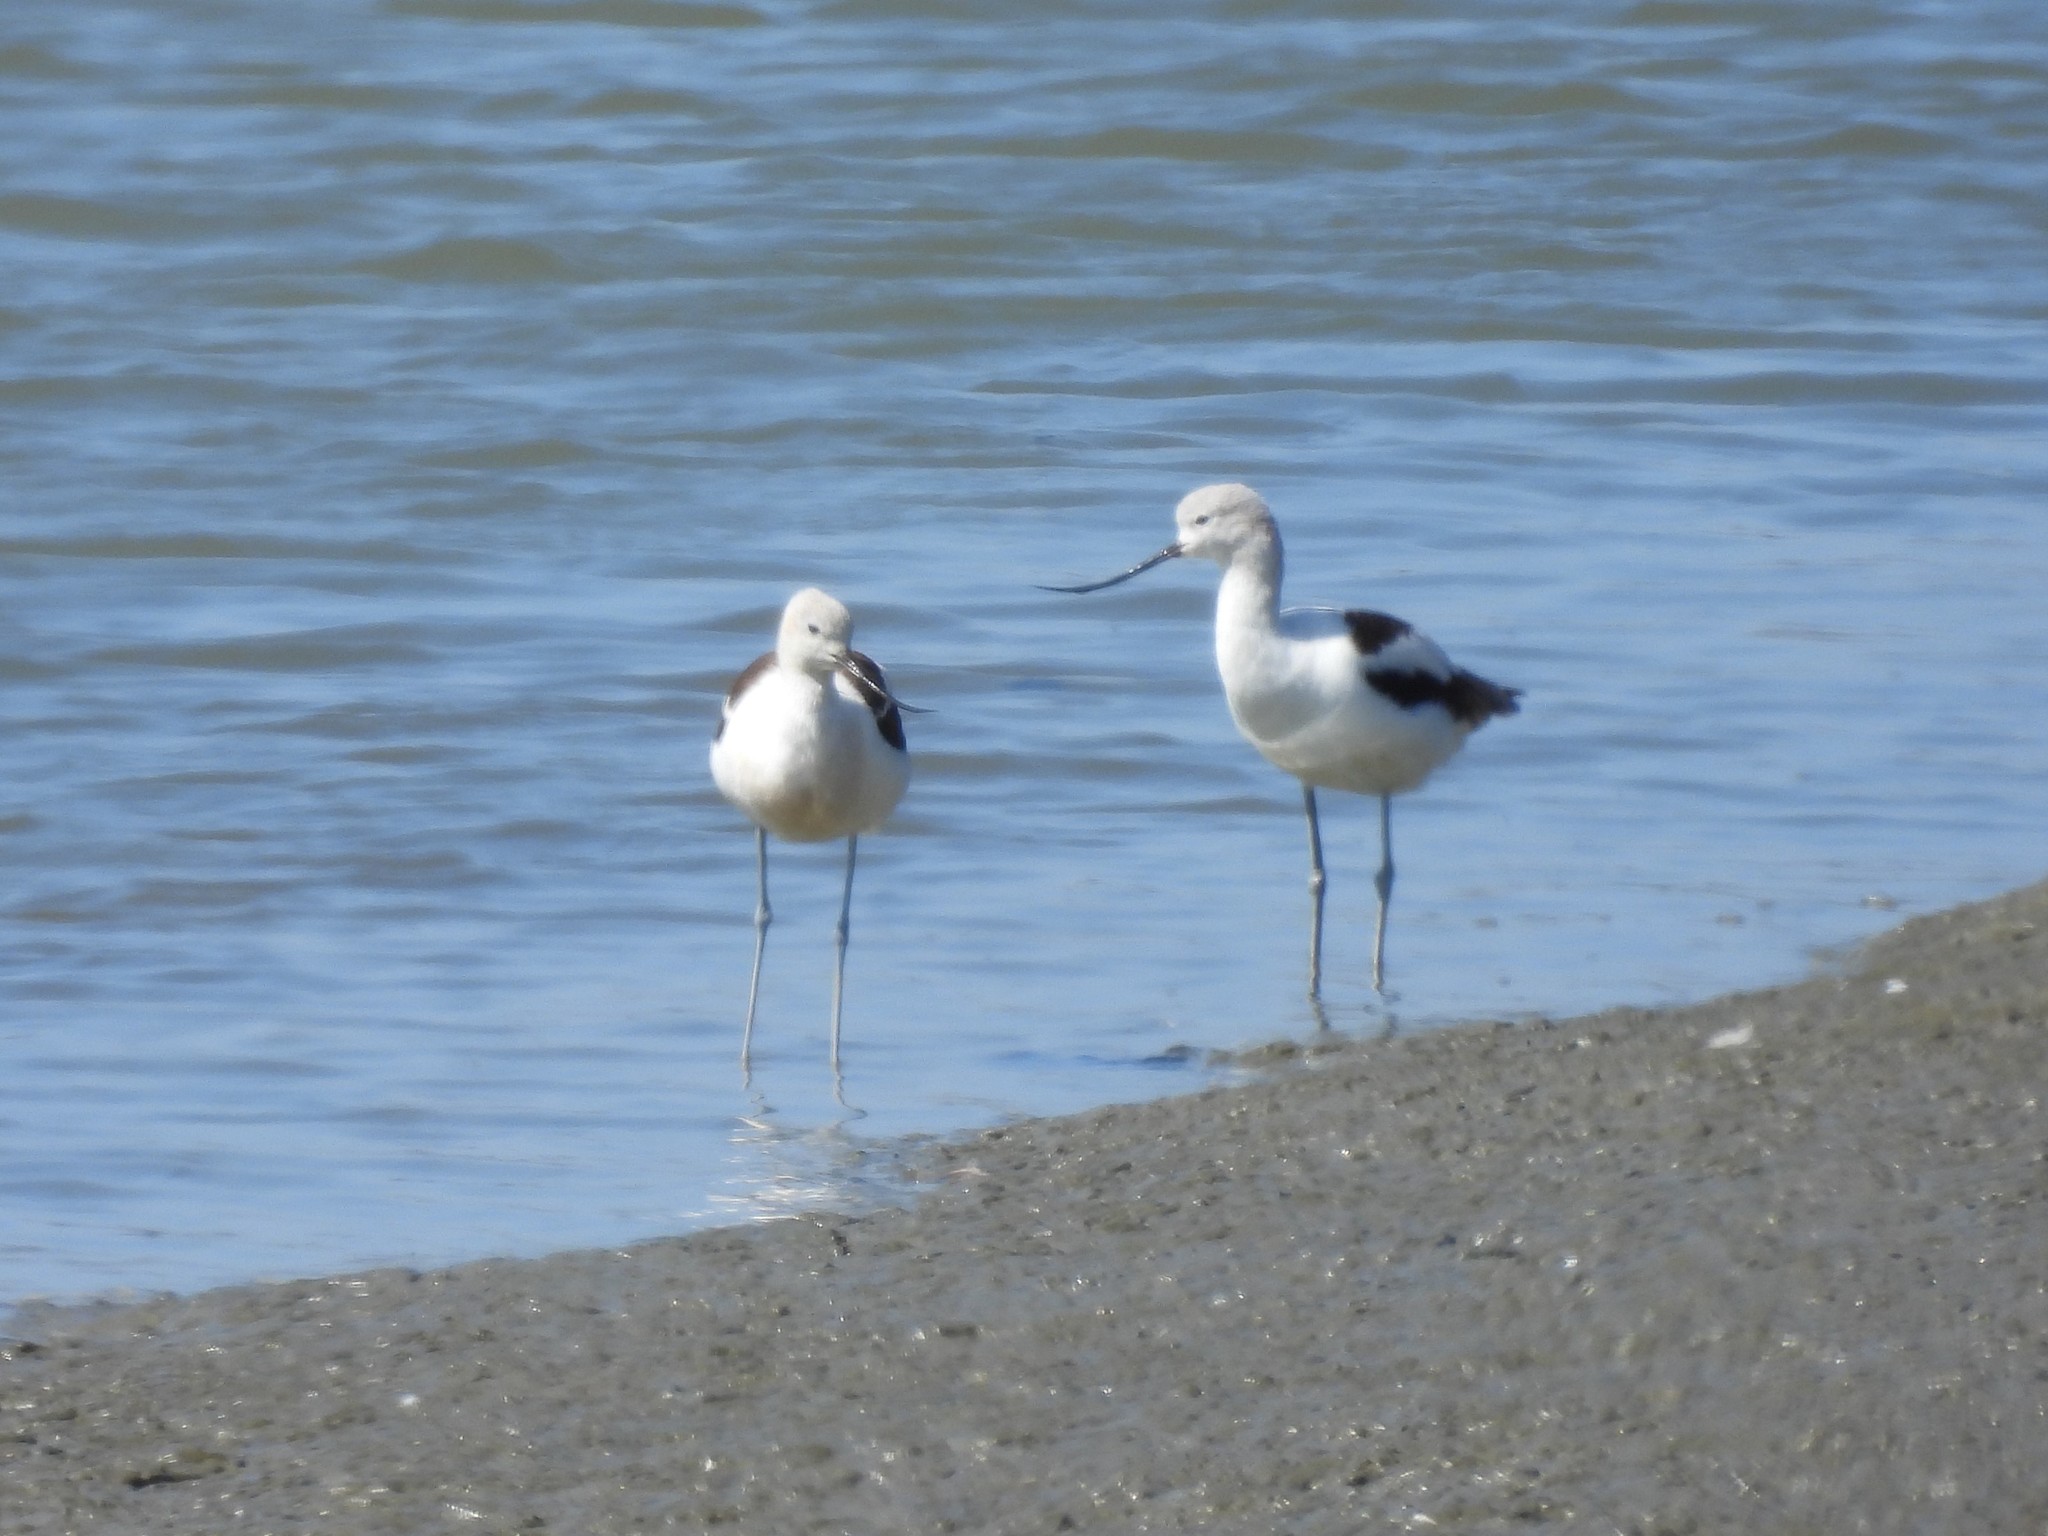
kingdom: Animalia
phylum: Chordata
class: Aves
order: Charadriiformes
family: Recurvirostridae
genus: Recurvirostra
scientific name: Recurvirostra americana
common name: American avocet
